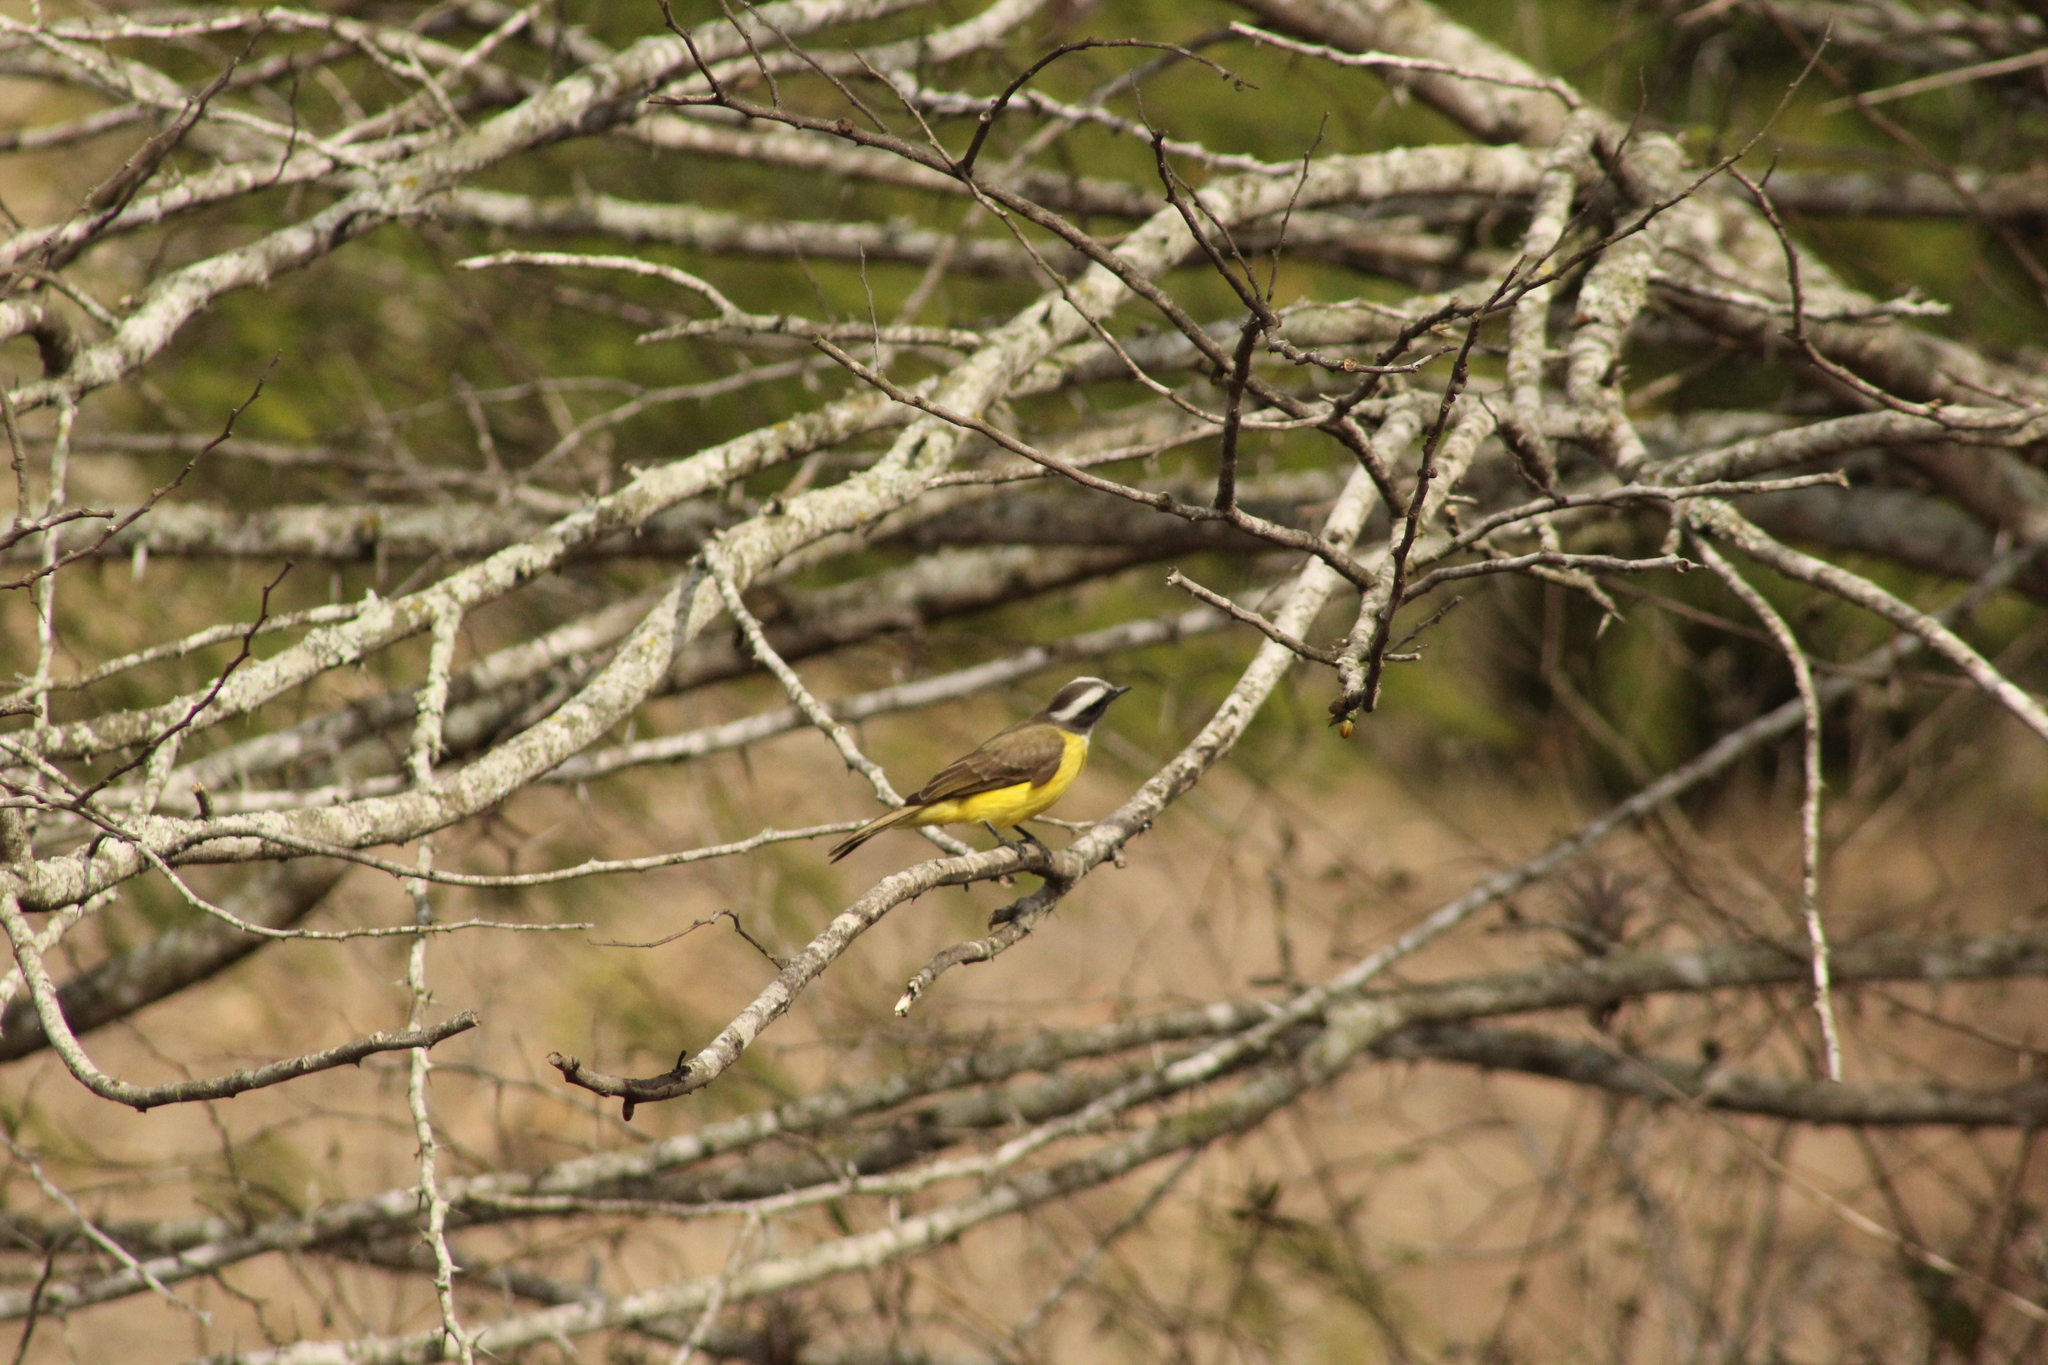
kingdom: Animalia
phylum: Chordata
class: Aves
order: Passeriformes
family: Tyrannidae
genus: Myiozetetes
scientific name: Myiozetetes similis
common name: Social flycatcher
